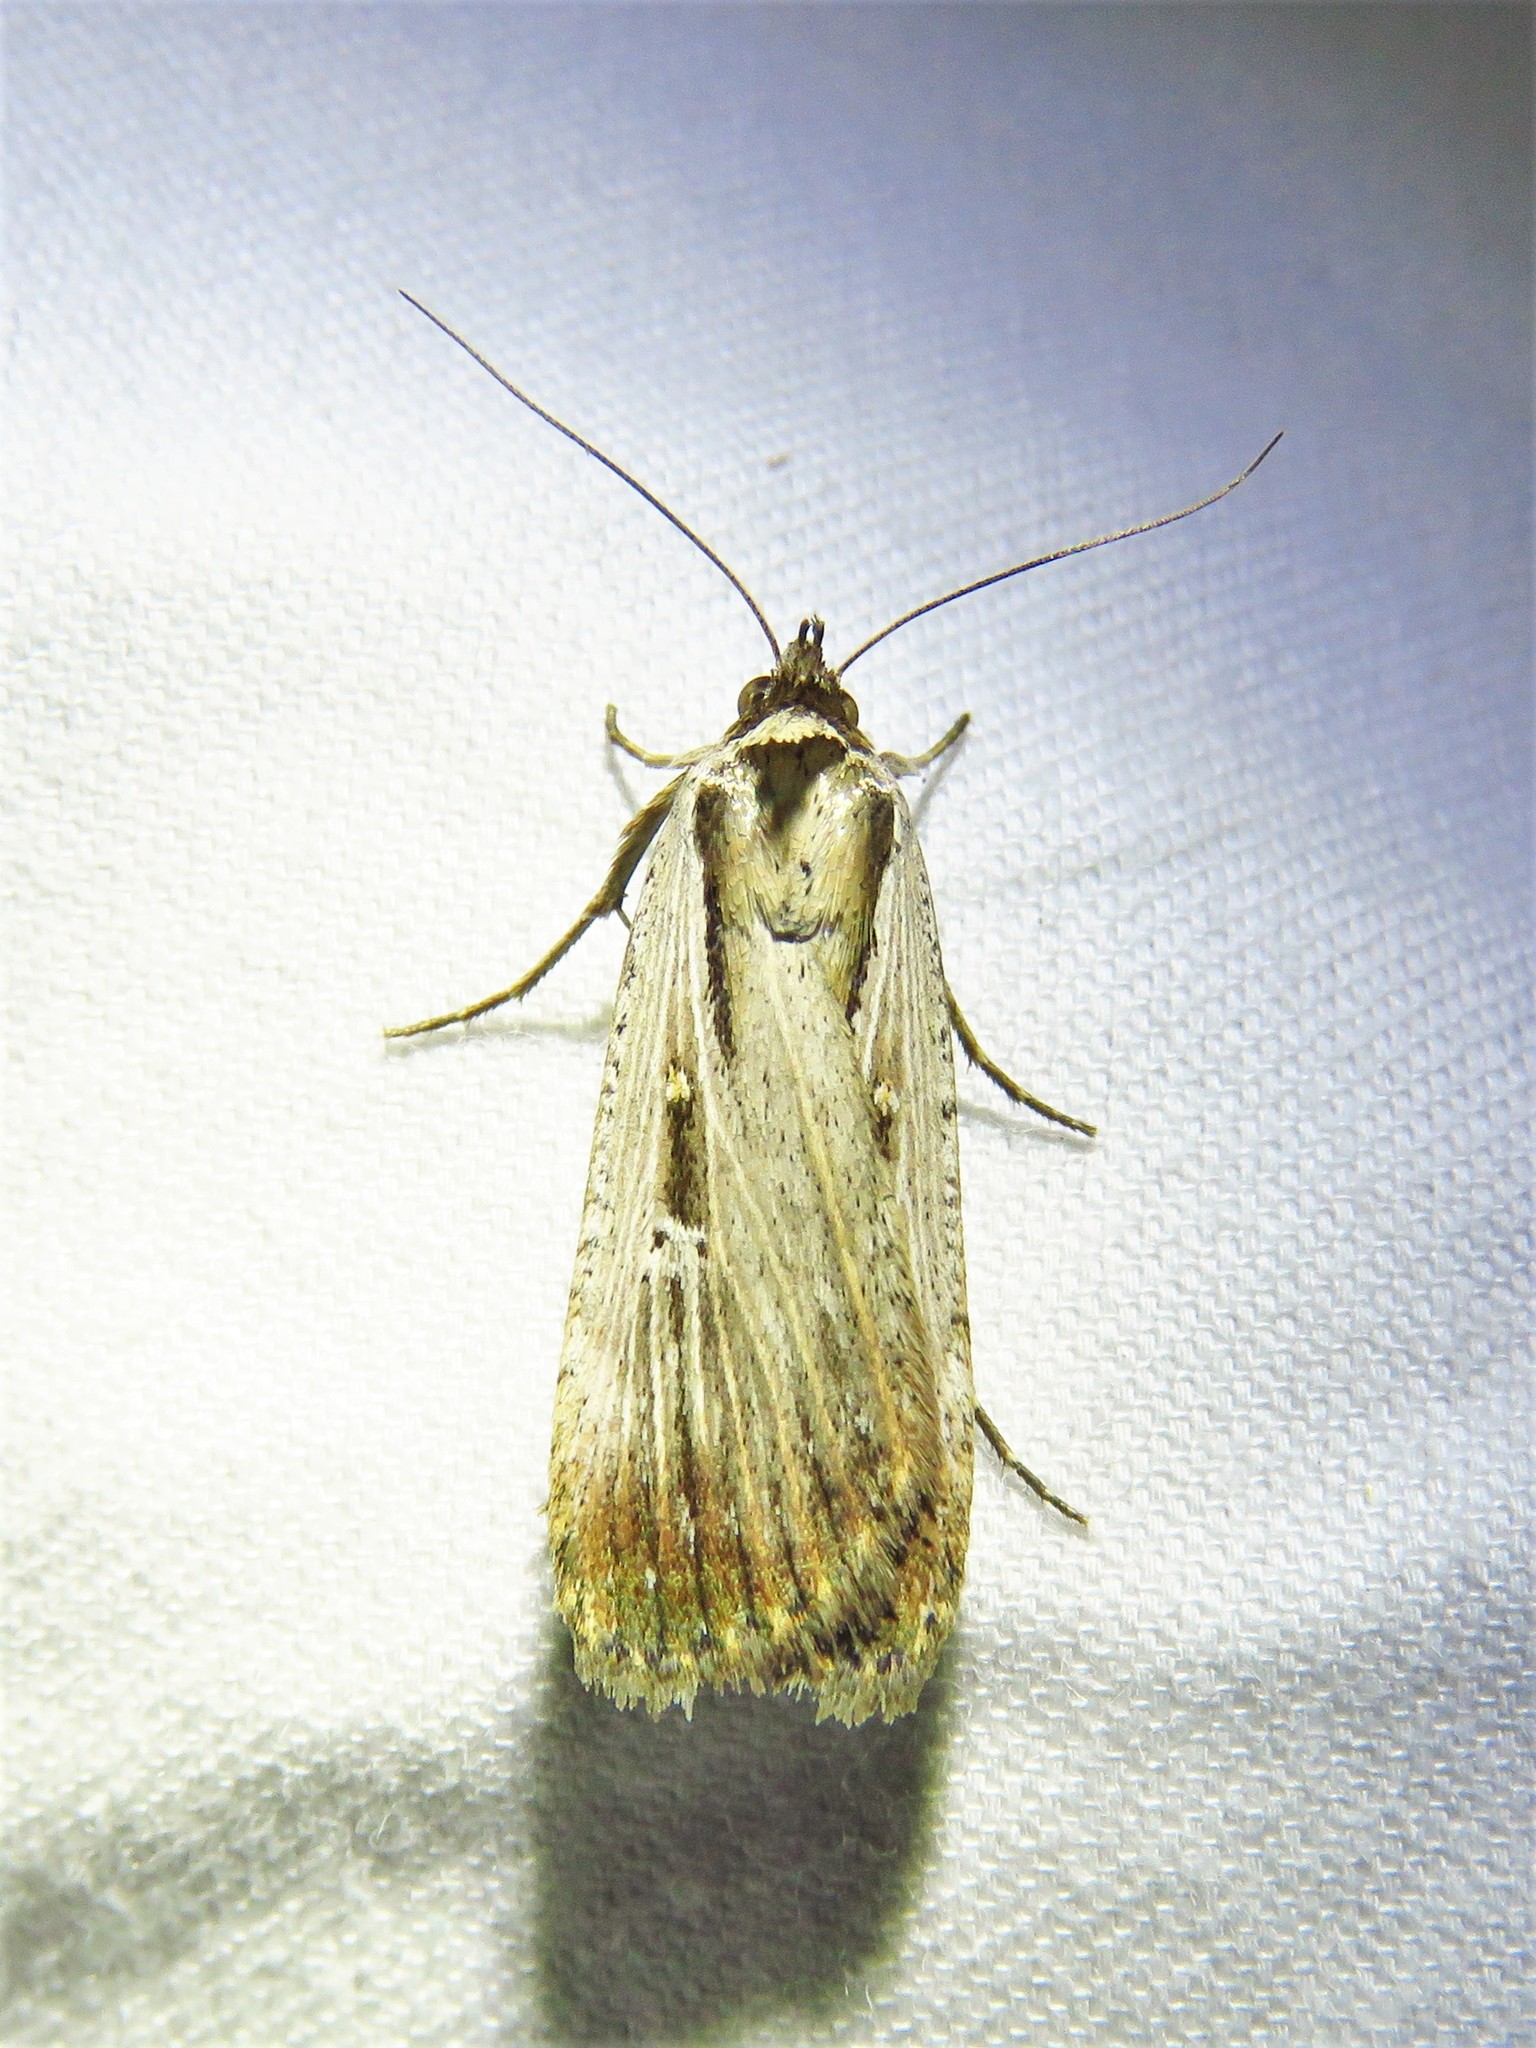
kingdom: Animalia
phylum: Arthropoda
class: Insecta
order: Lepidoptera
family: Noctuidae
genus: Tathorhynchus
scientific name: Tathorhynchus exsiccata
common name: Levant blackneck moth
